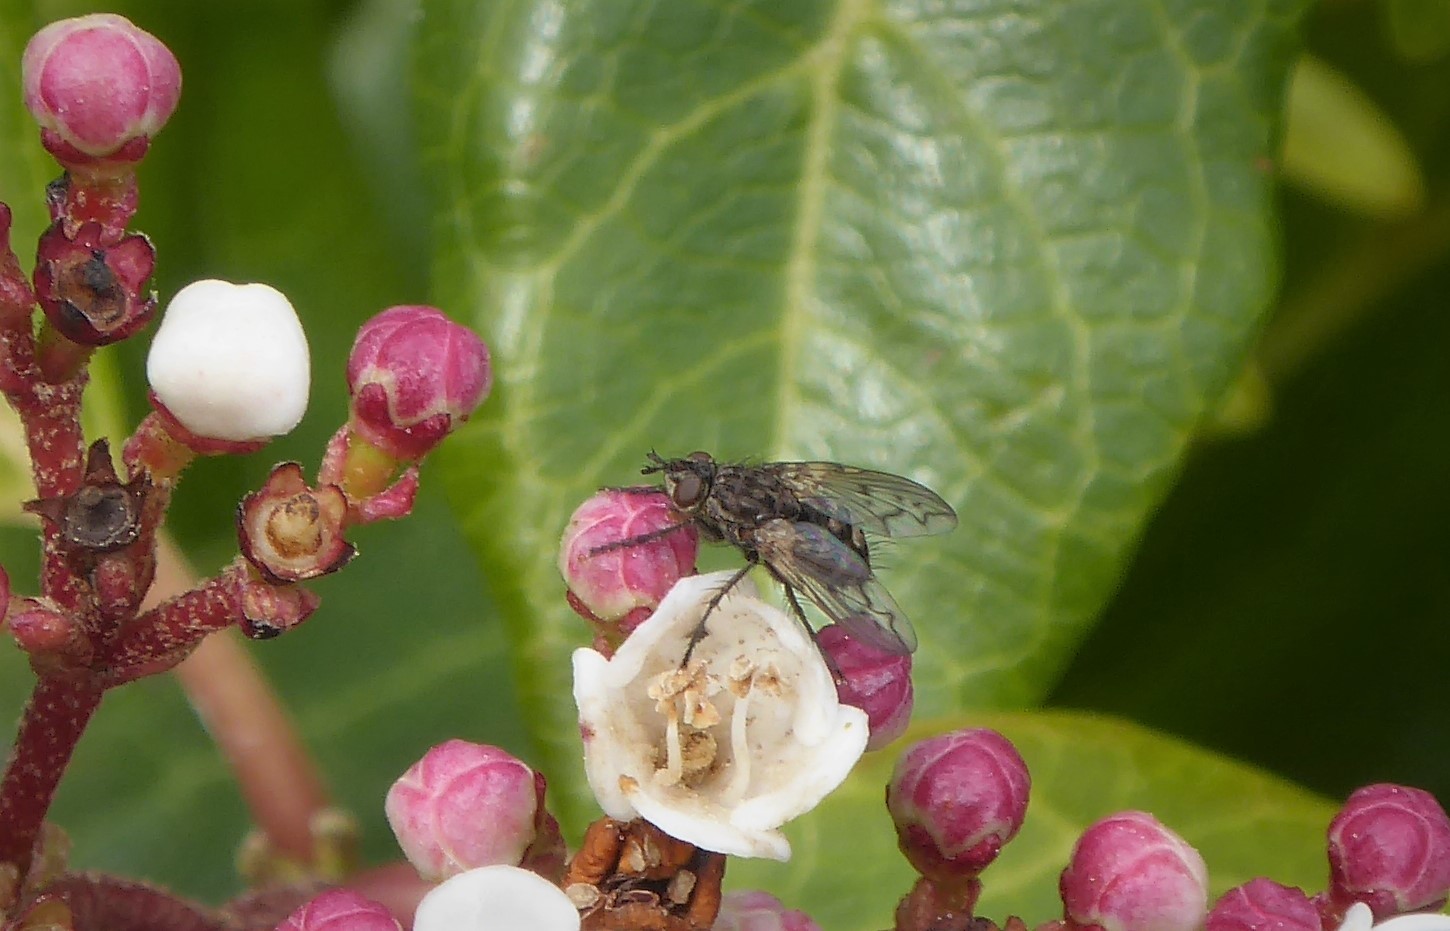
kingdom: Animalia
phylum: Arthropoda
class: Insecta
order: Diptera
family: Tachinidae
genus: Mallochomacquartia
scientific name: Mallochomacquartia vexata
